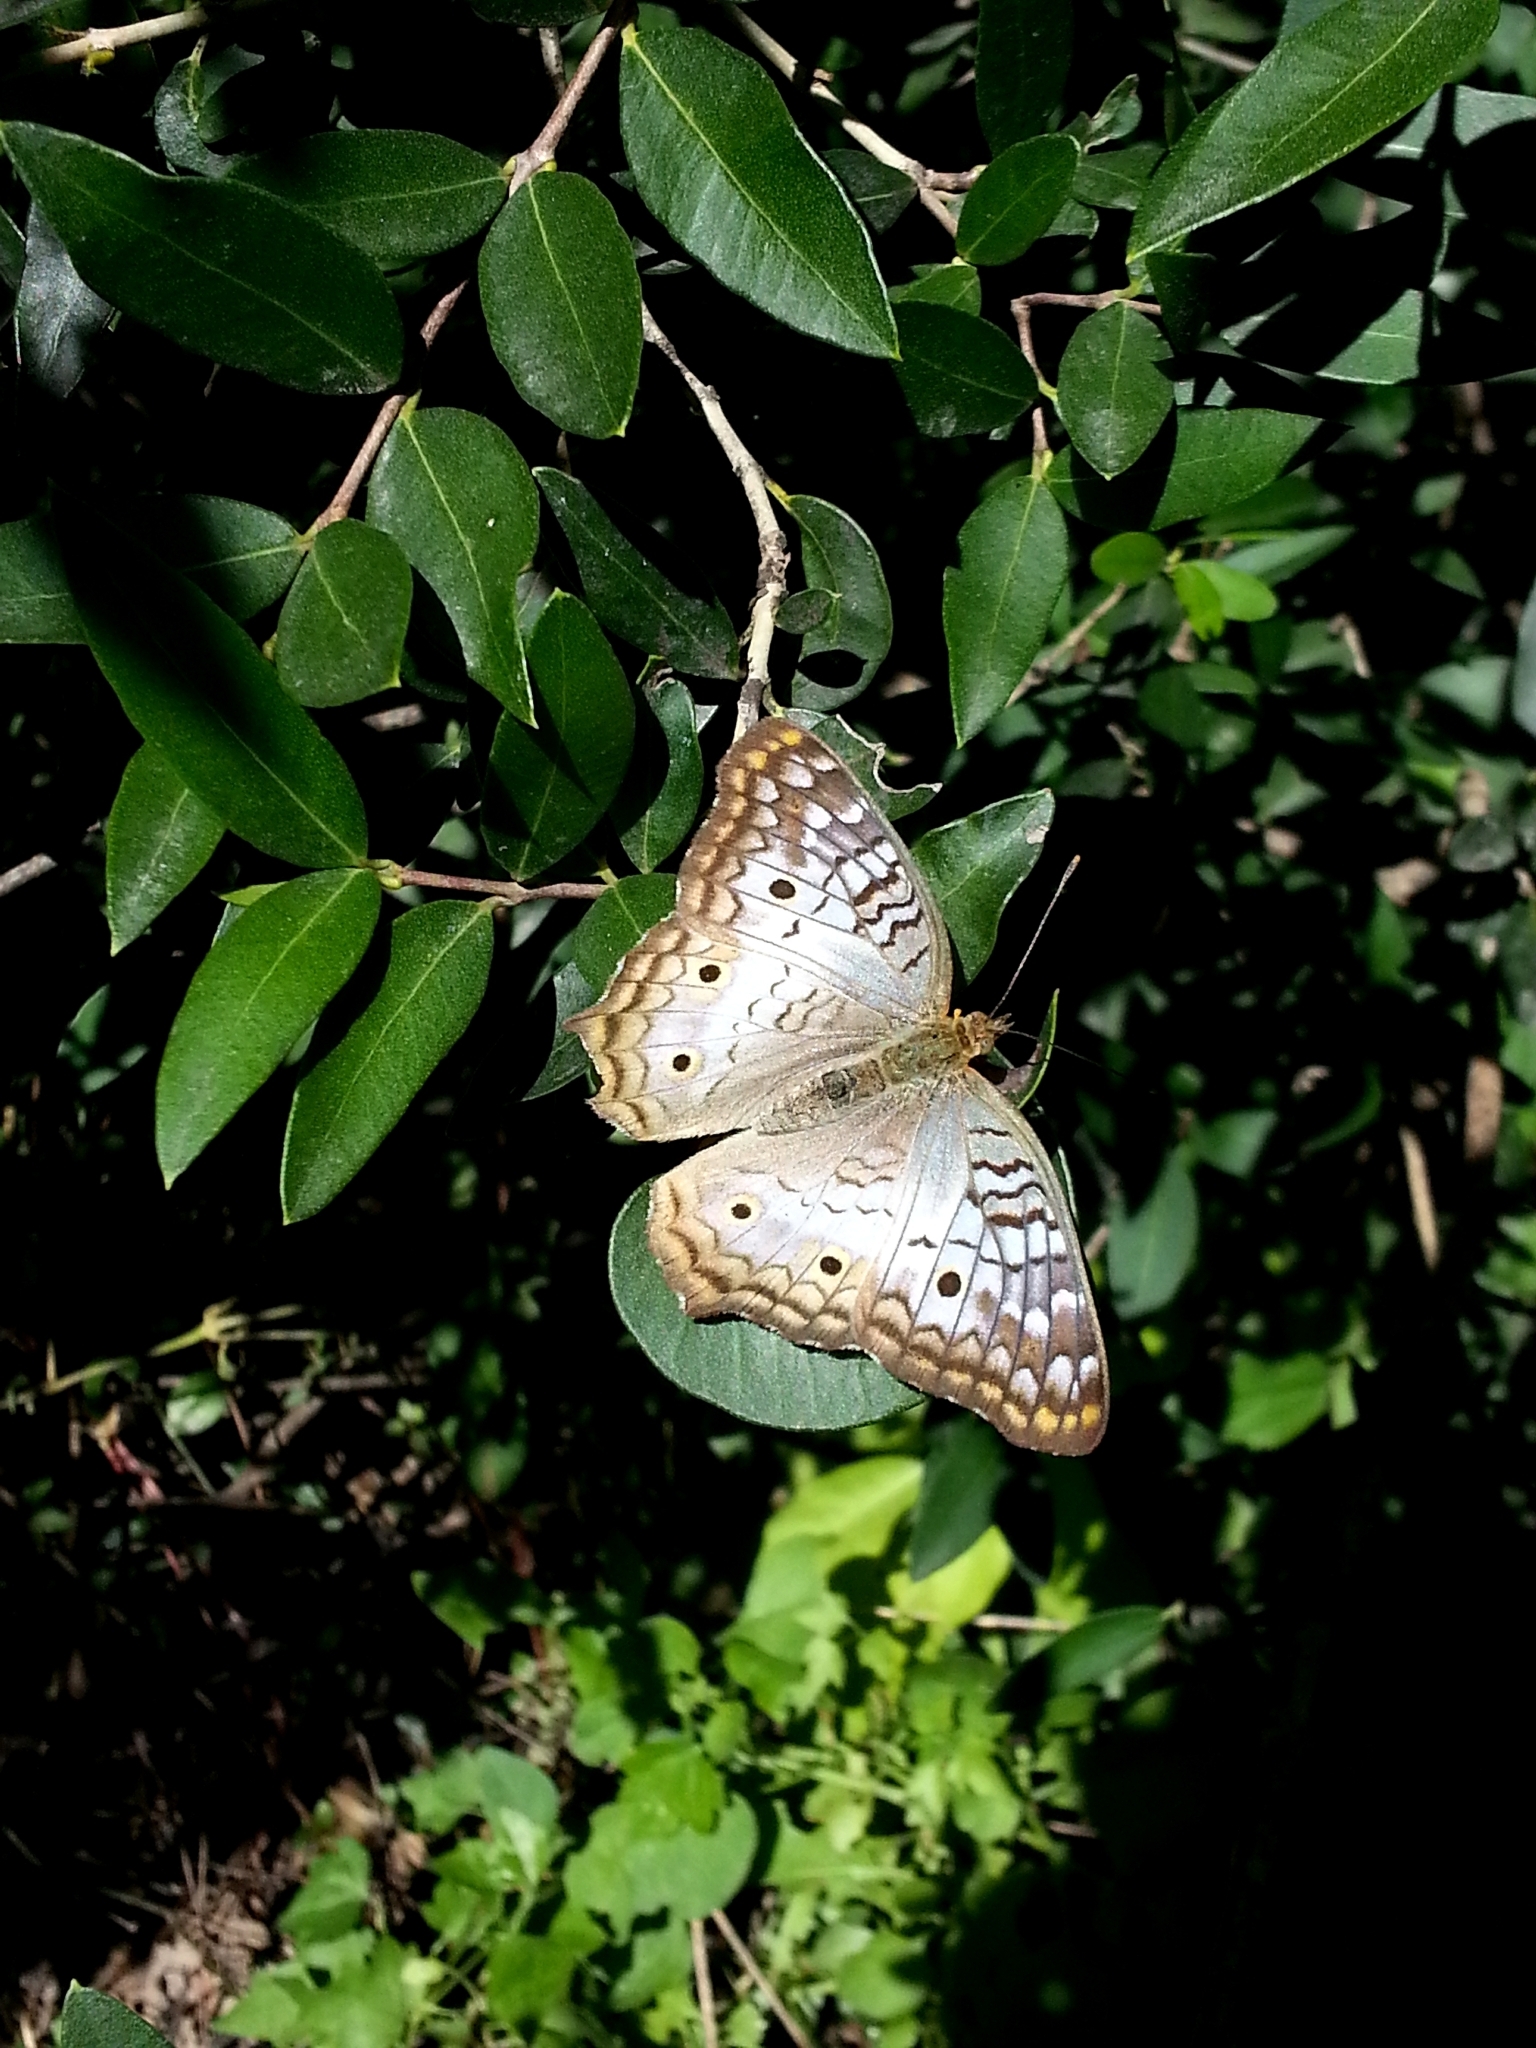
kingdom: Animalia
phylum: Arthropoda
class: Insecta
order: Lepidoptera
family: Nymphalidae
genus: Anartia
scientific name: Anartia jatrophae
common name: White peacock
